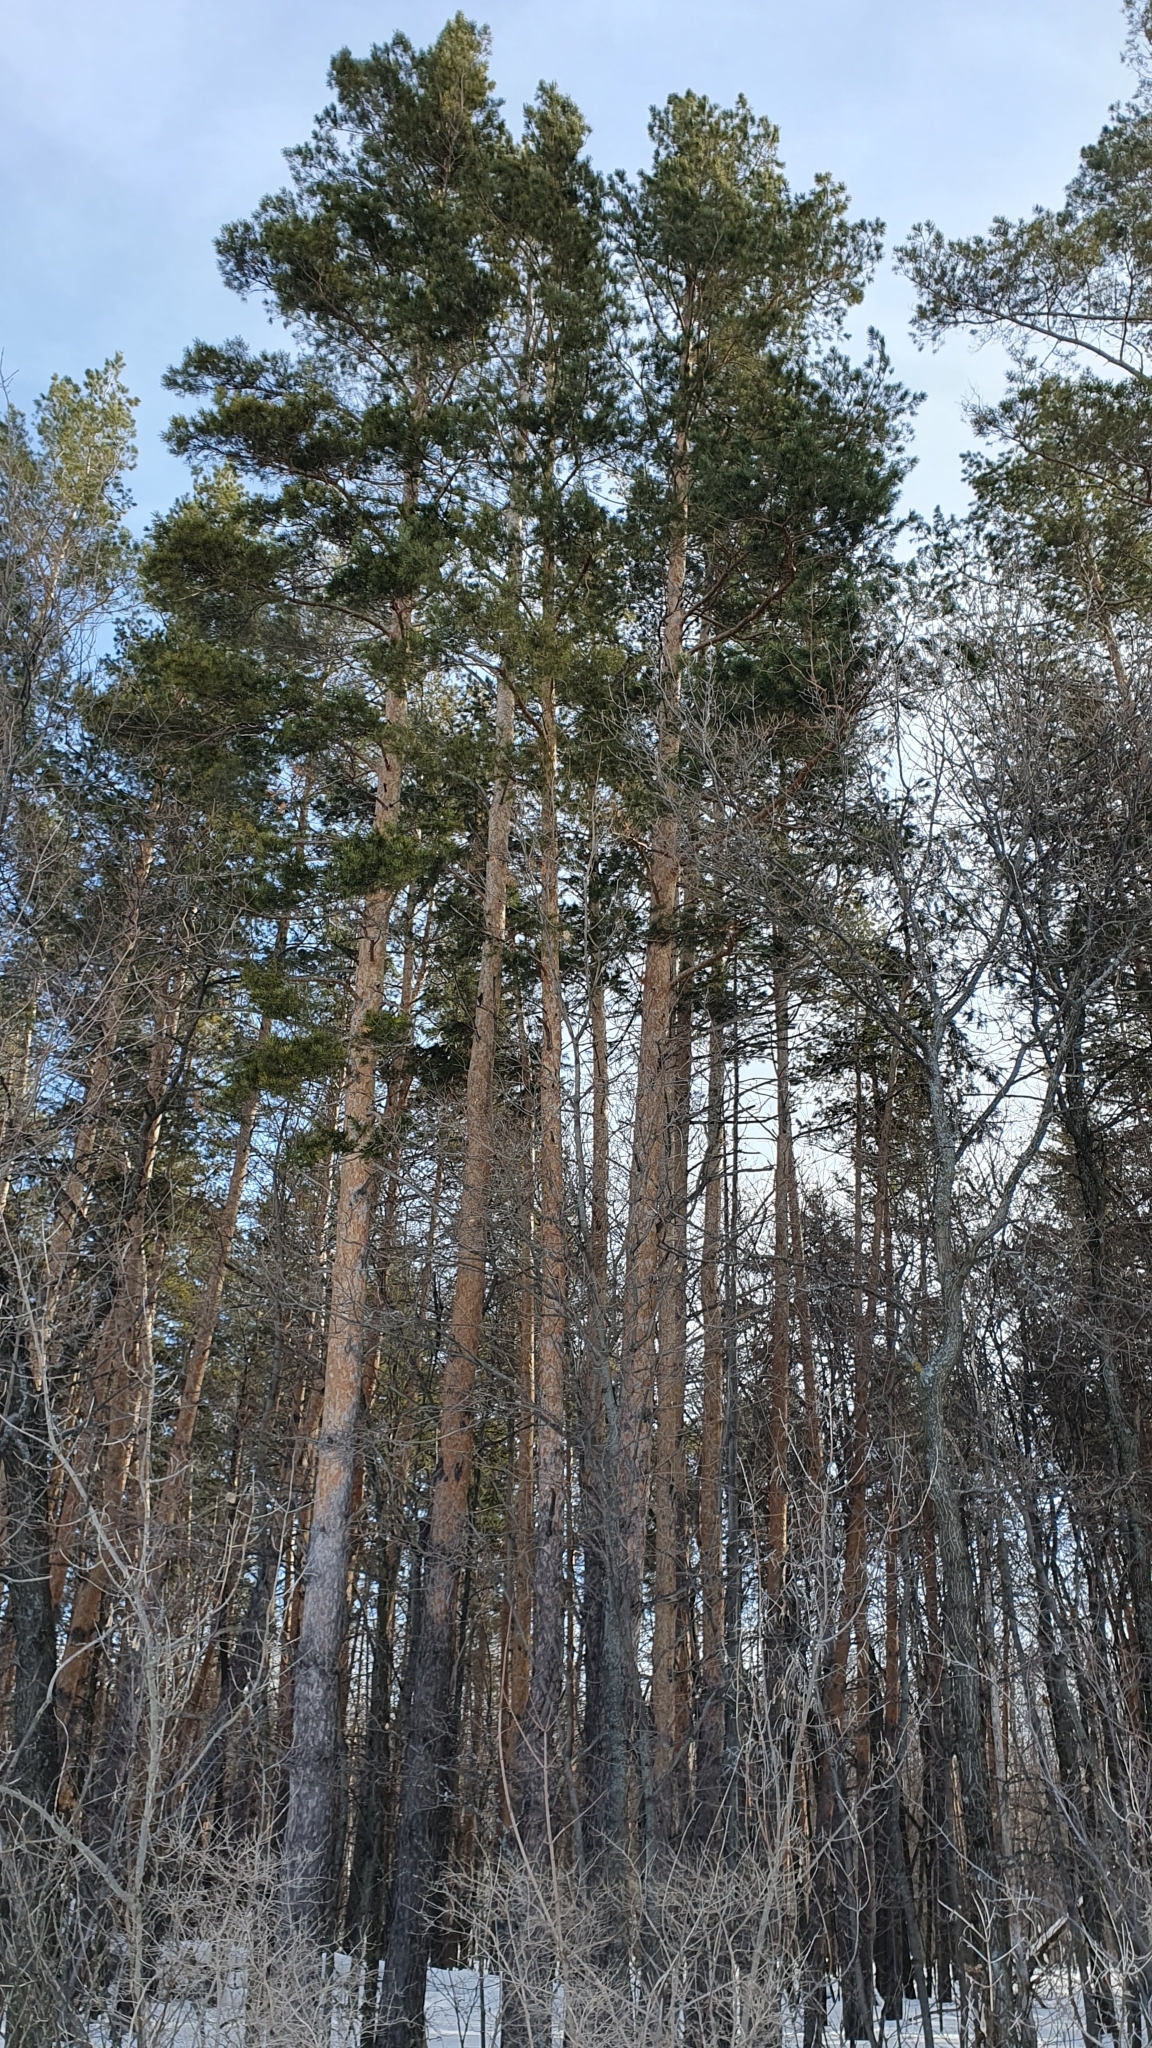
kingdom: Plantae
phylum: Tracheophyta
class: Pinopsida
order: Pinales
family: Pinaceae
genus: Pinus
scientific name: Pinus sylvestris
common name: Scots pine
